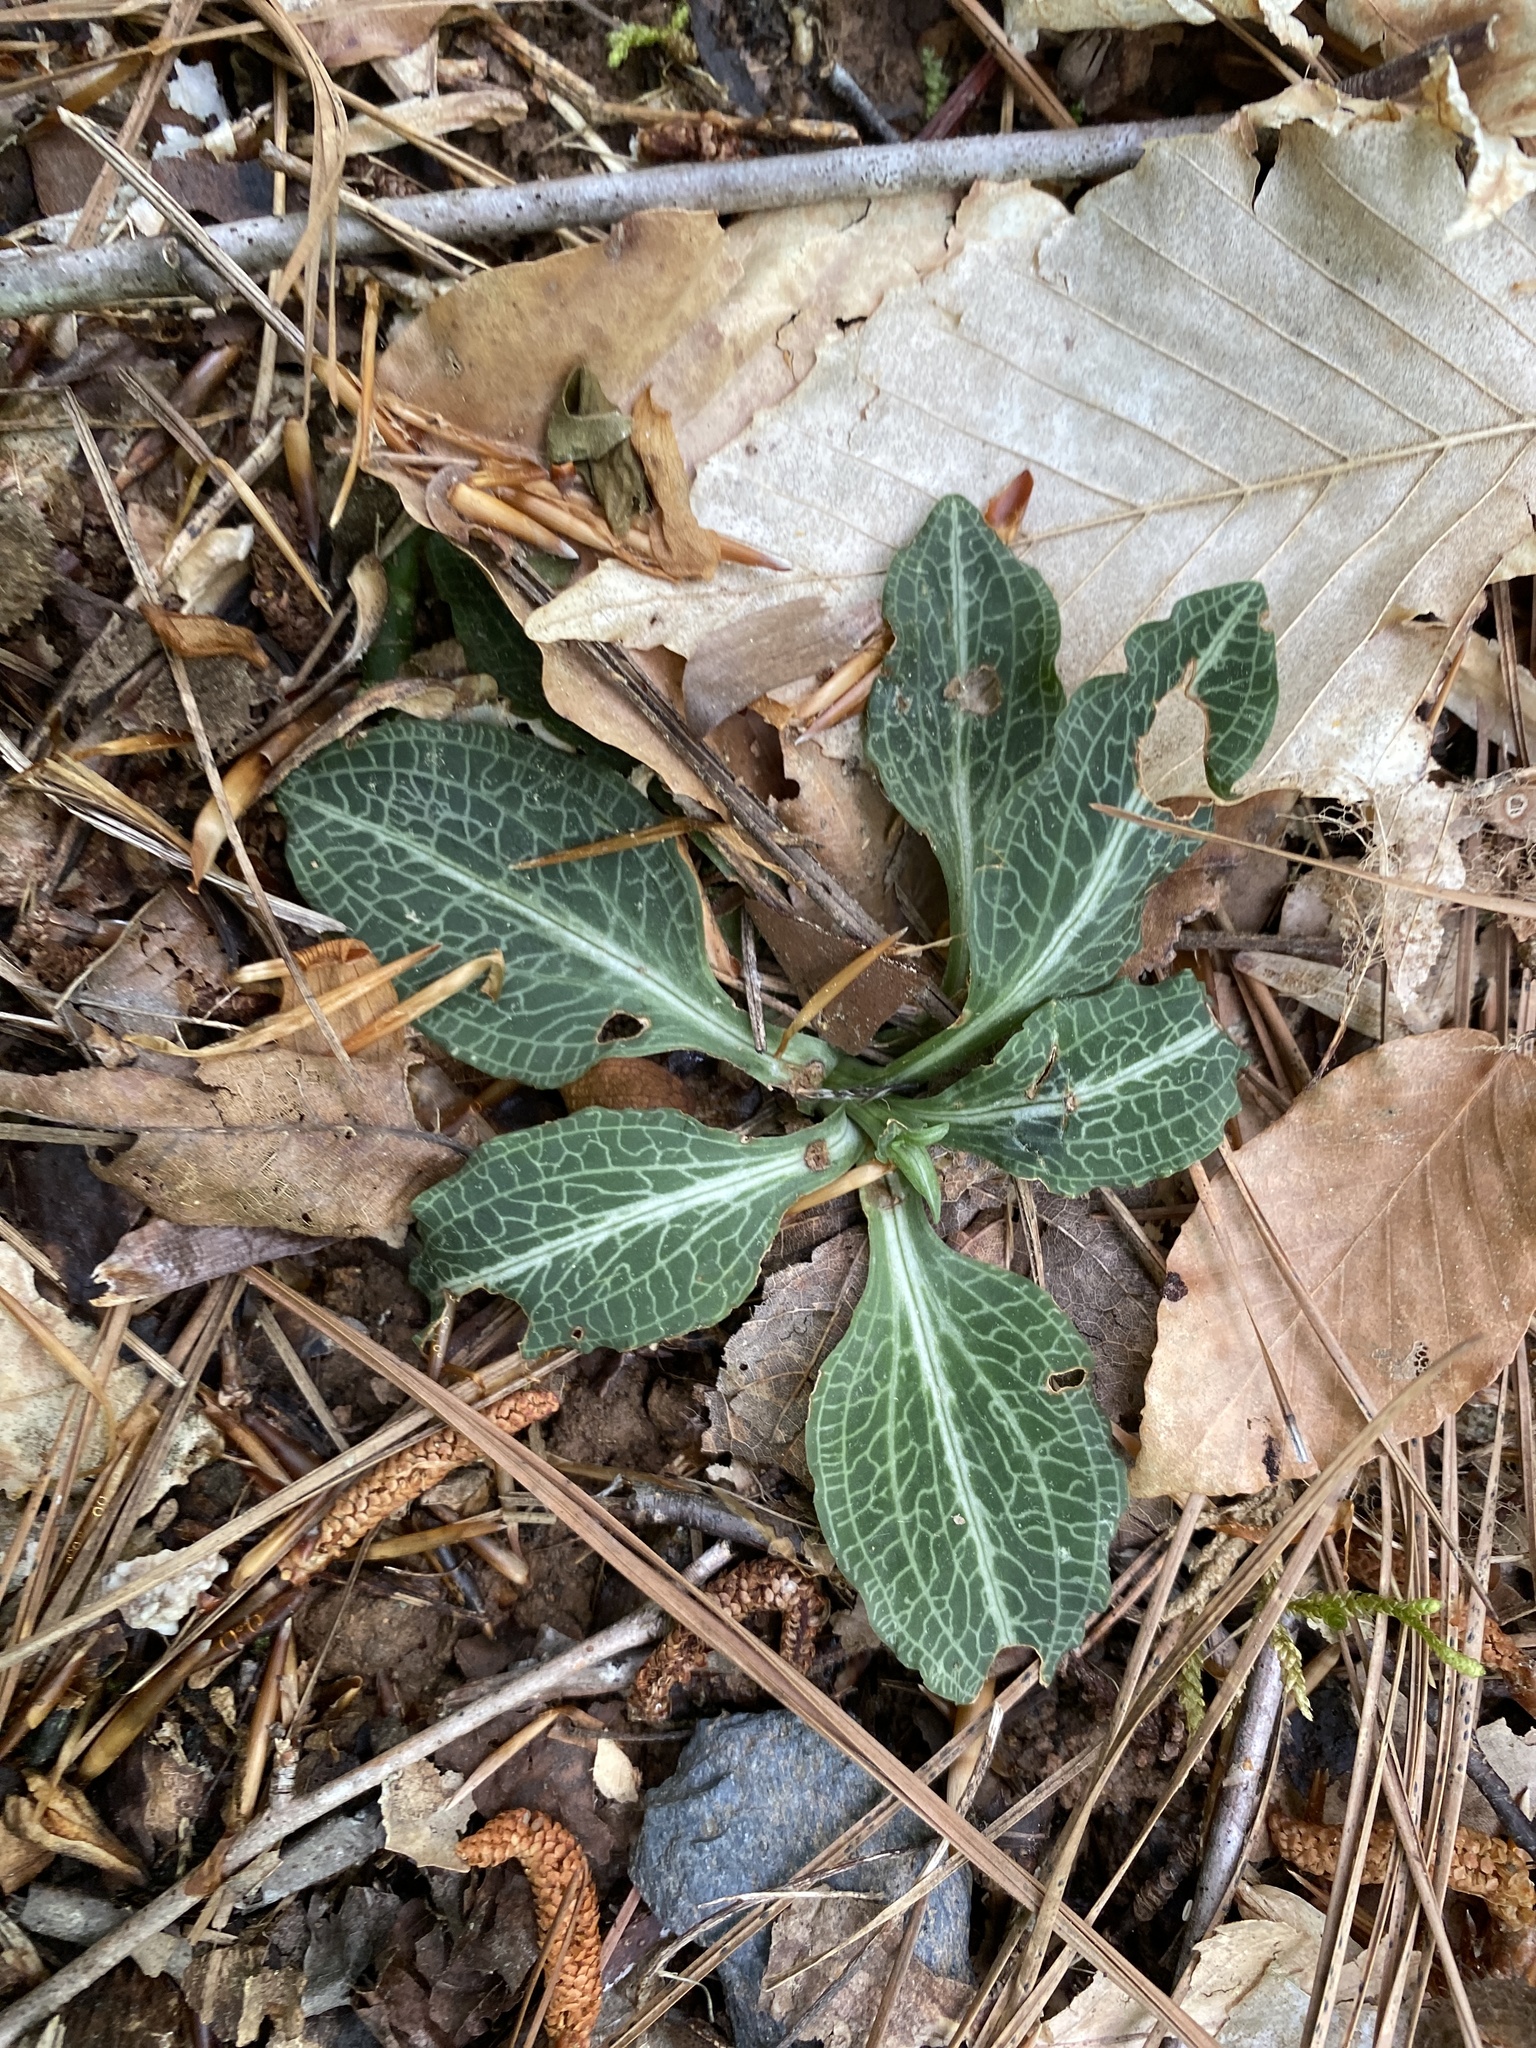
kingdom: Plantae
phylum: Tracheophyta
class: Liliopsida
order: Asparagales
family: Orchidaceae
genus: Goodyera
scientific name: Goodyera pubescens
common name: Downy rattlesnake-plantain
